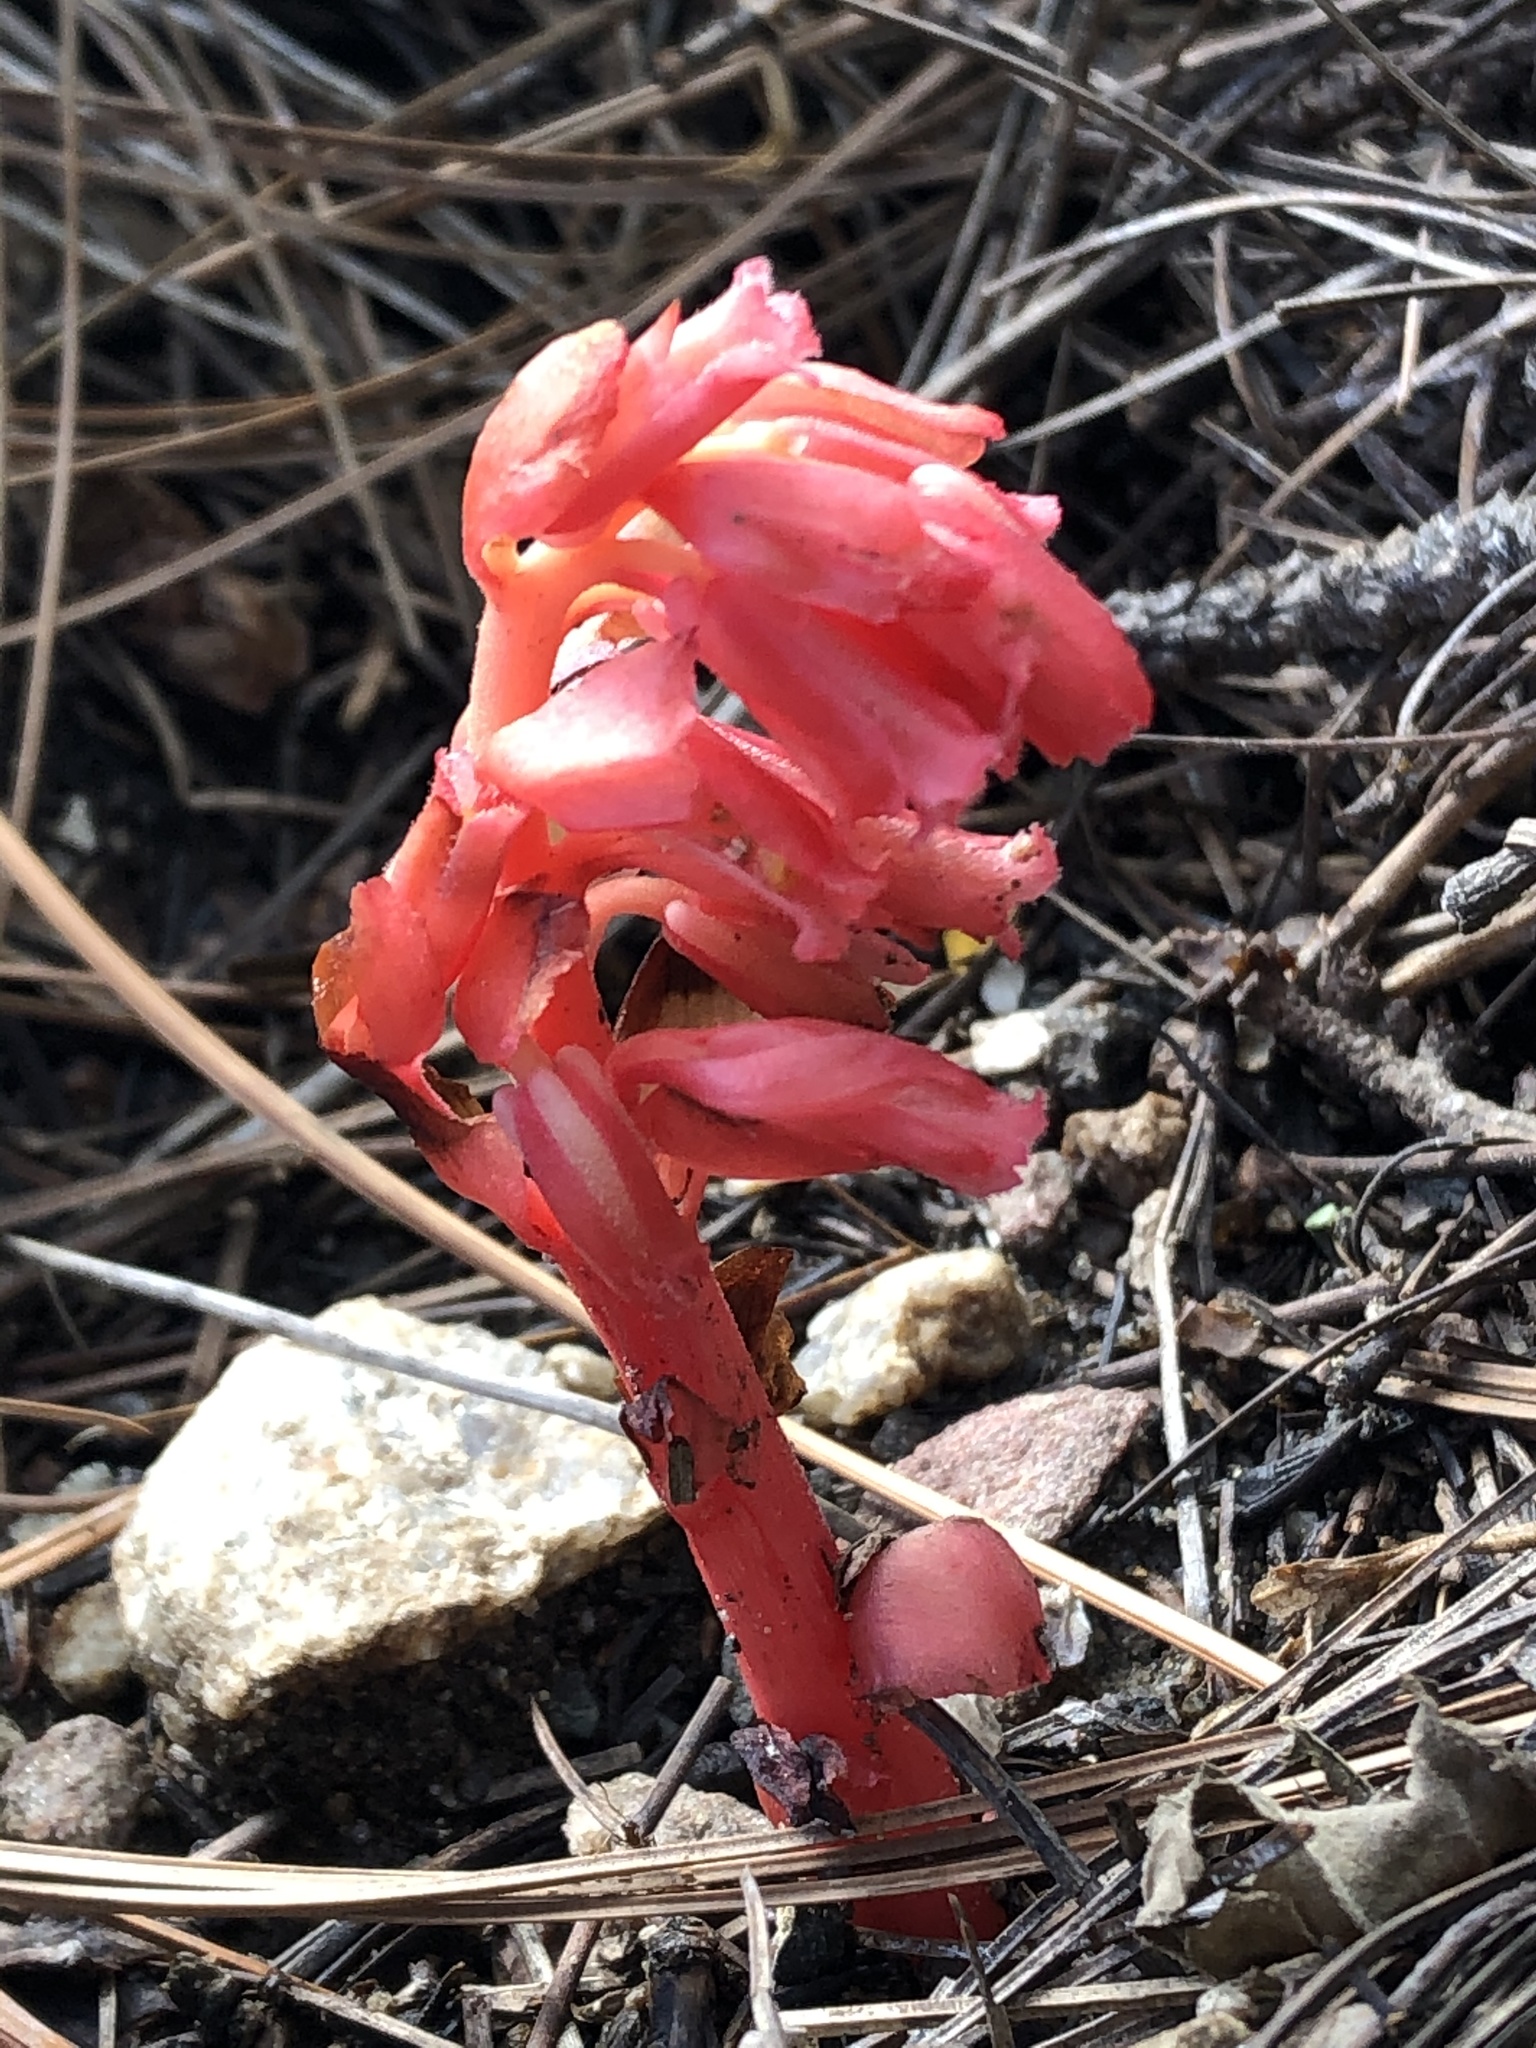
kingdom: Plantae
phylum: Tracheophyta
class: Magnoliopsida
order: Ericales
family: Ericaceae
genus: Hypopitys
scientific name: Hypopitys monotropa
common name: Yellow bird's-nest
